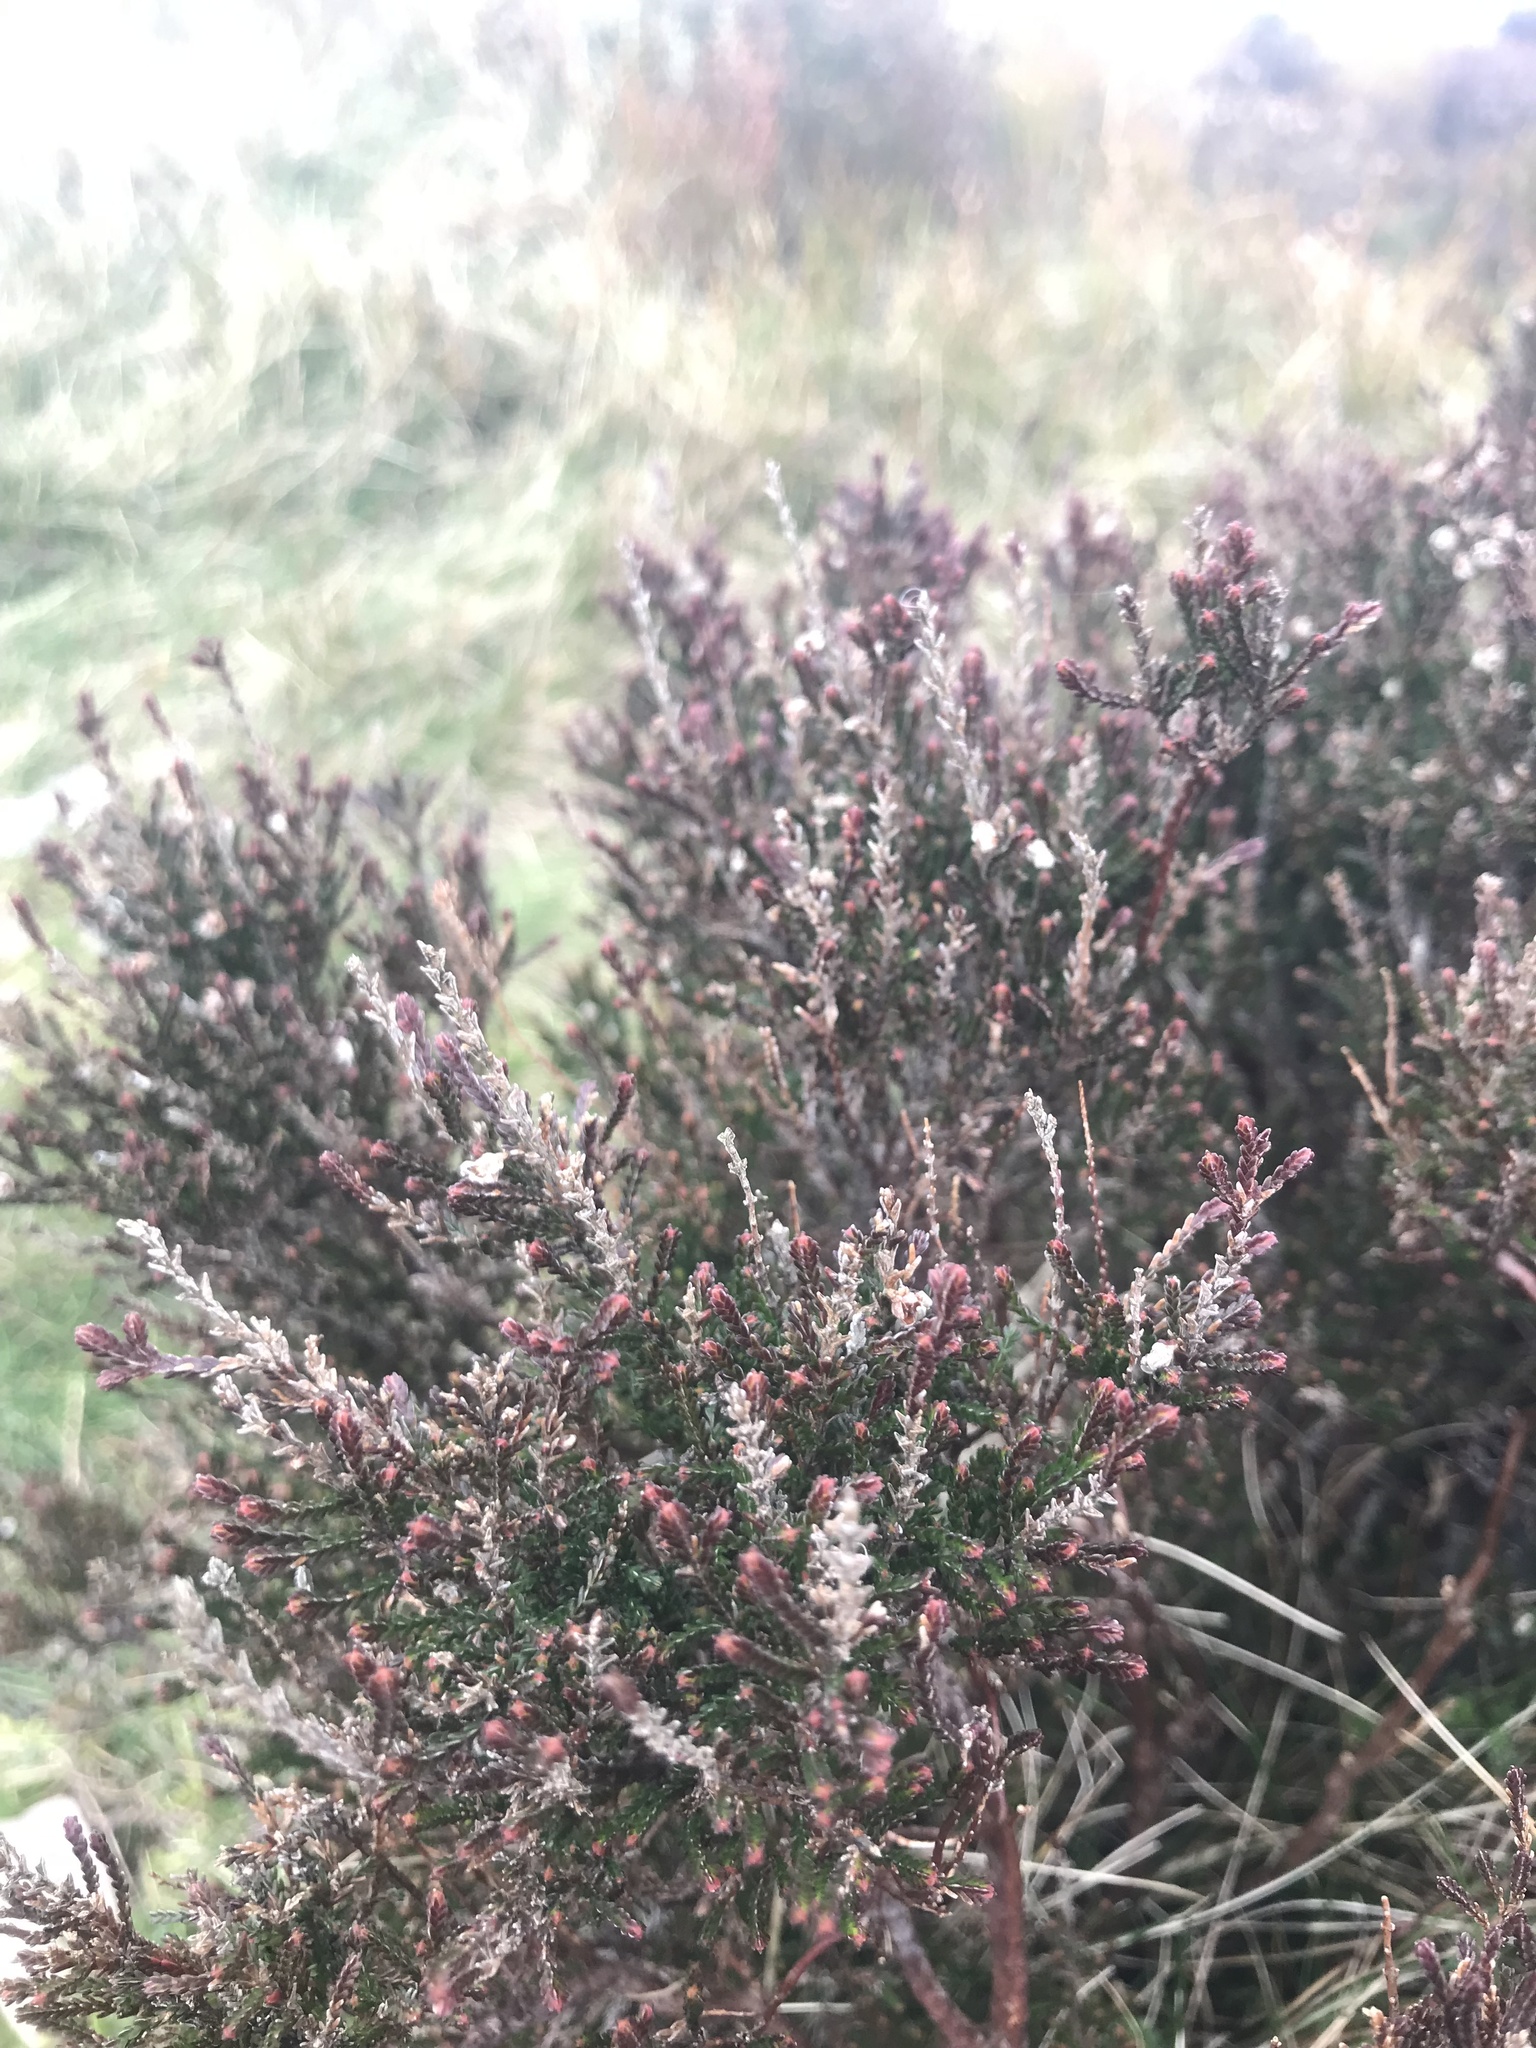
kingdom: Plantae
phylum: Tracheophyta
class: Magnoliopsida
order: Ericales
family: Ericaceae
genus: Calluna
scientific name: Calluna vulgaris
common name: Heather
